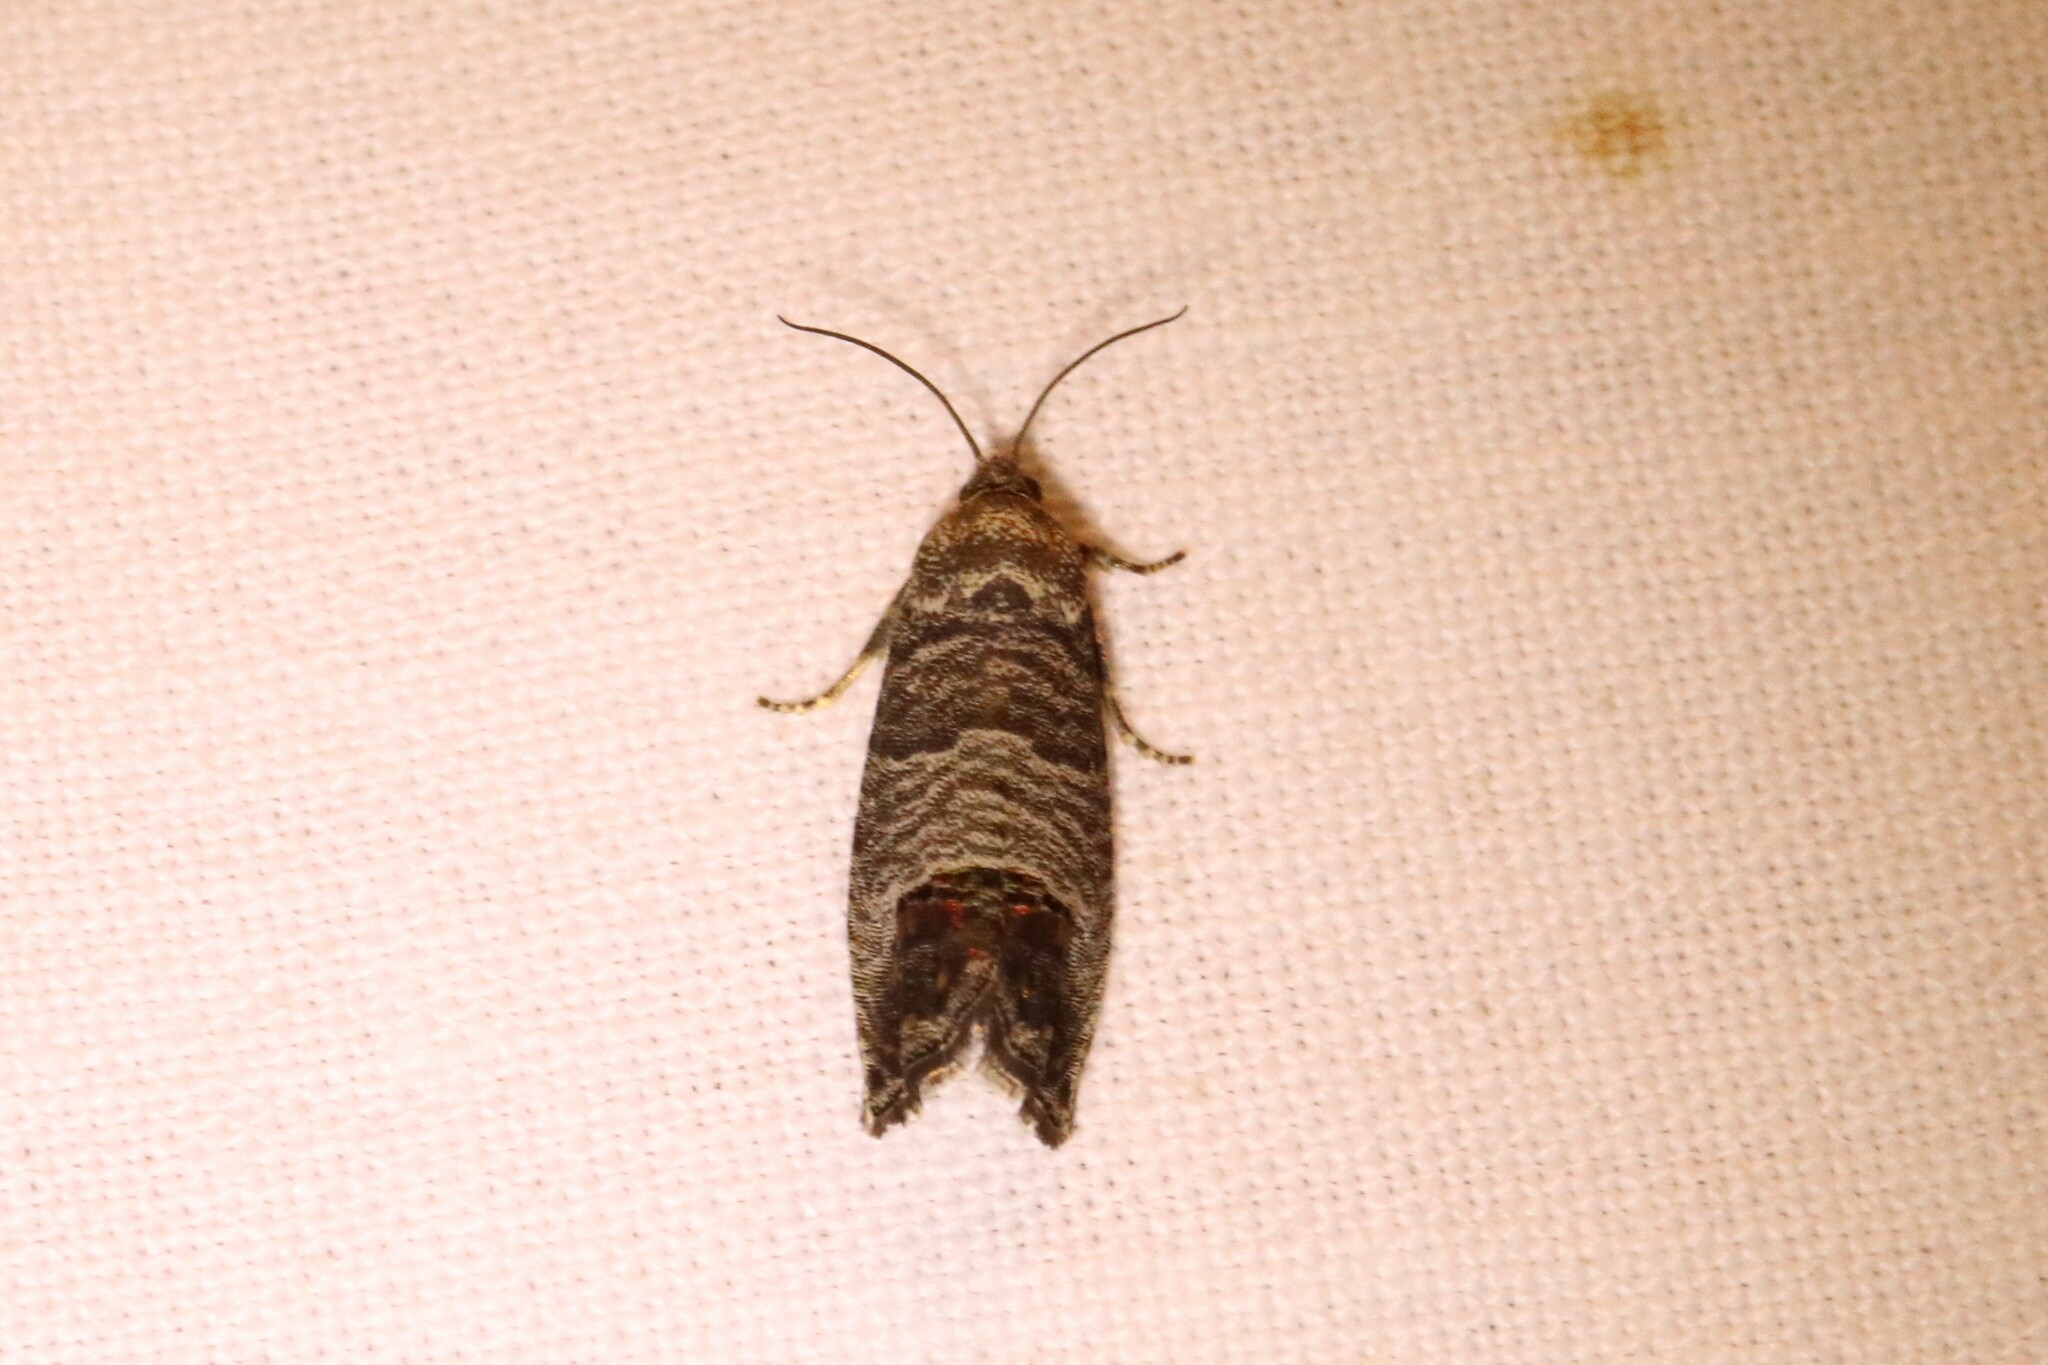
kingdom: Animalia
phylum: Arthropoda
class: Insecta
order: Lepidoptera
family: Tortricidae
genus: Cydia
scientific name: Cydia pomonella
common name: Codling moth
